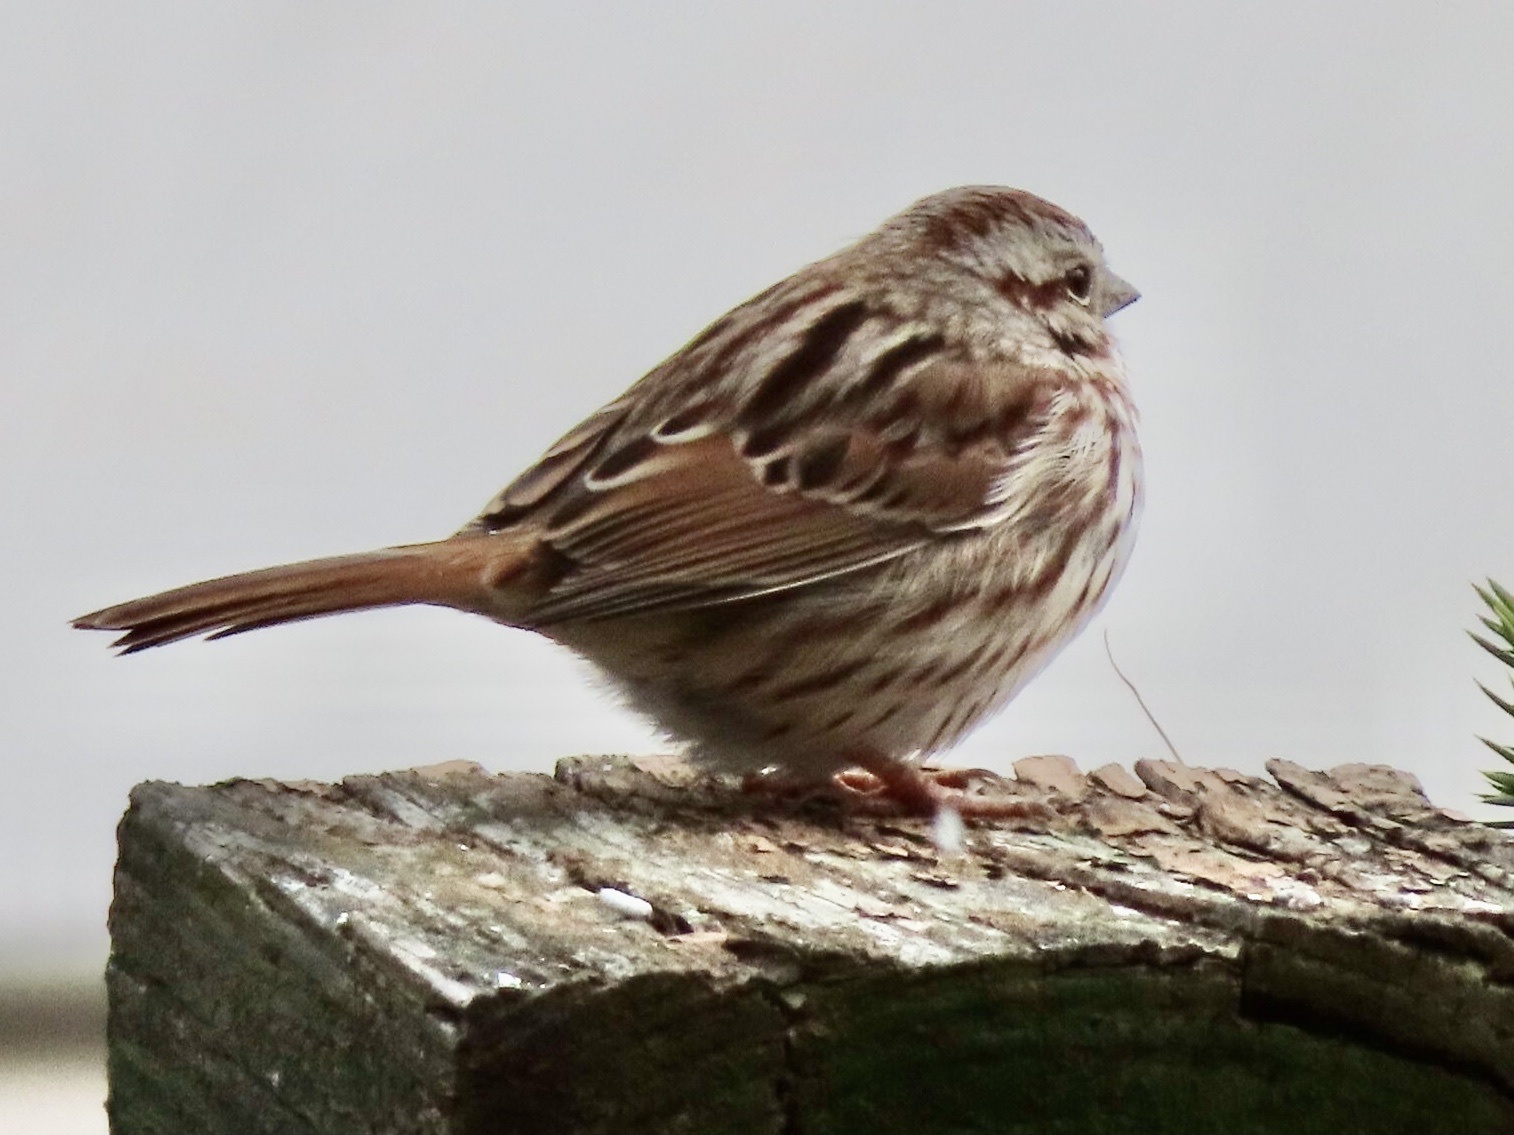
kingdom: Animalia
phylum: Chordata
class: Aves
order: Passeriformes
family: Passerellidae
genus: Melospiza
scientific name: Melospiza melodia
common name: Song sparrow
